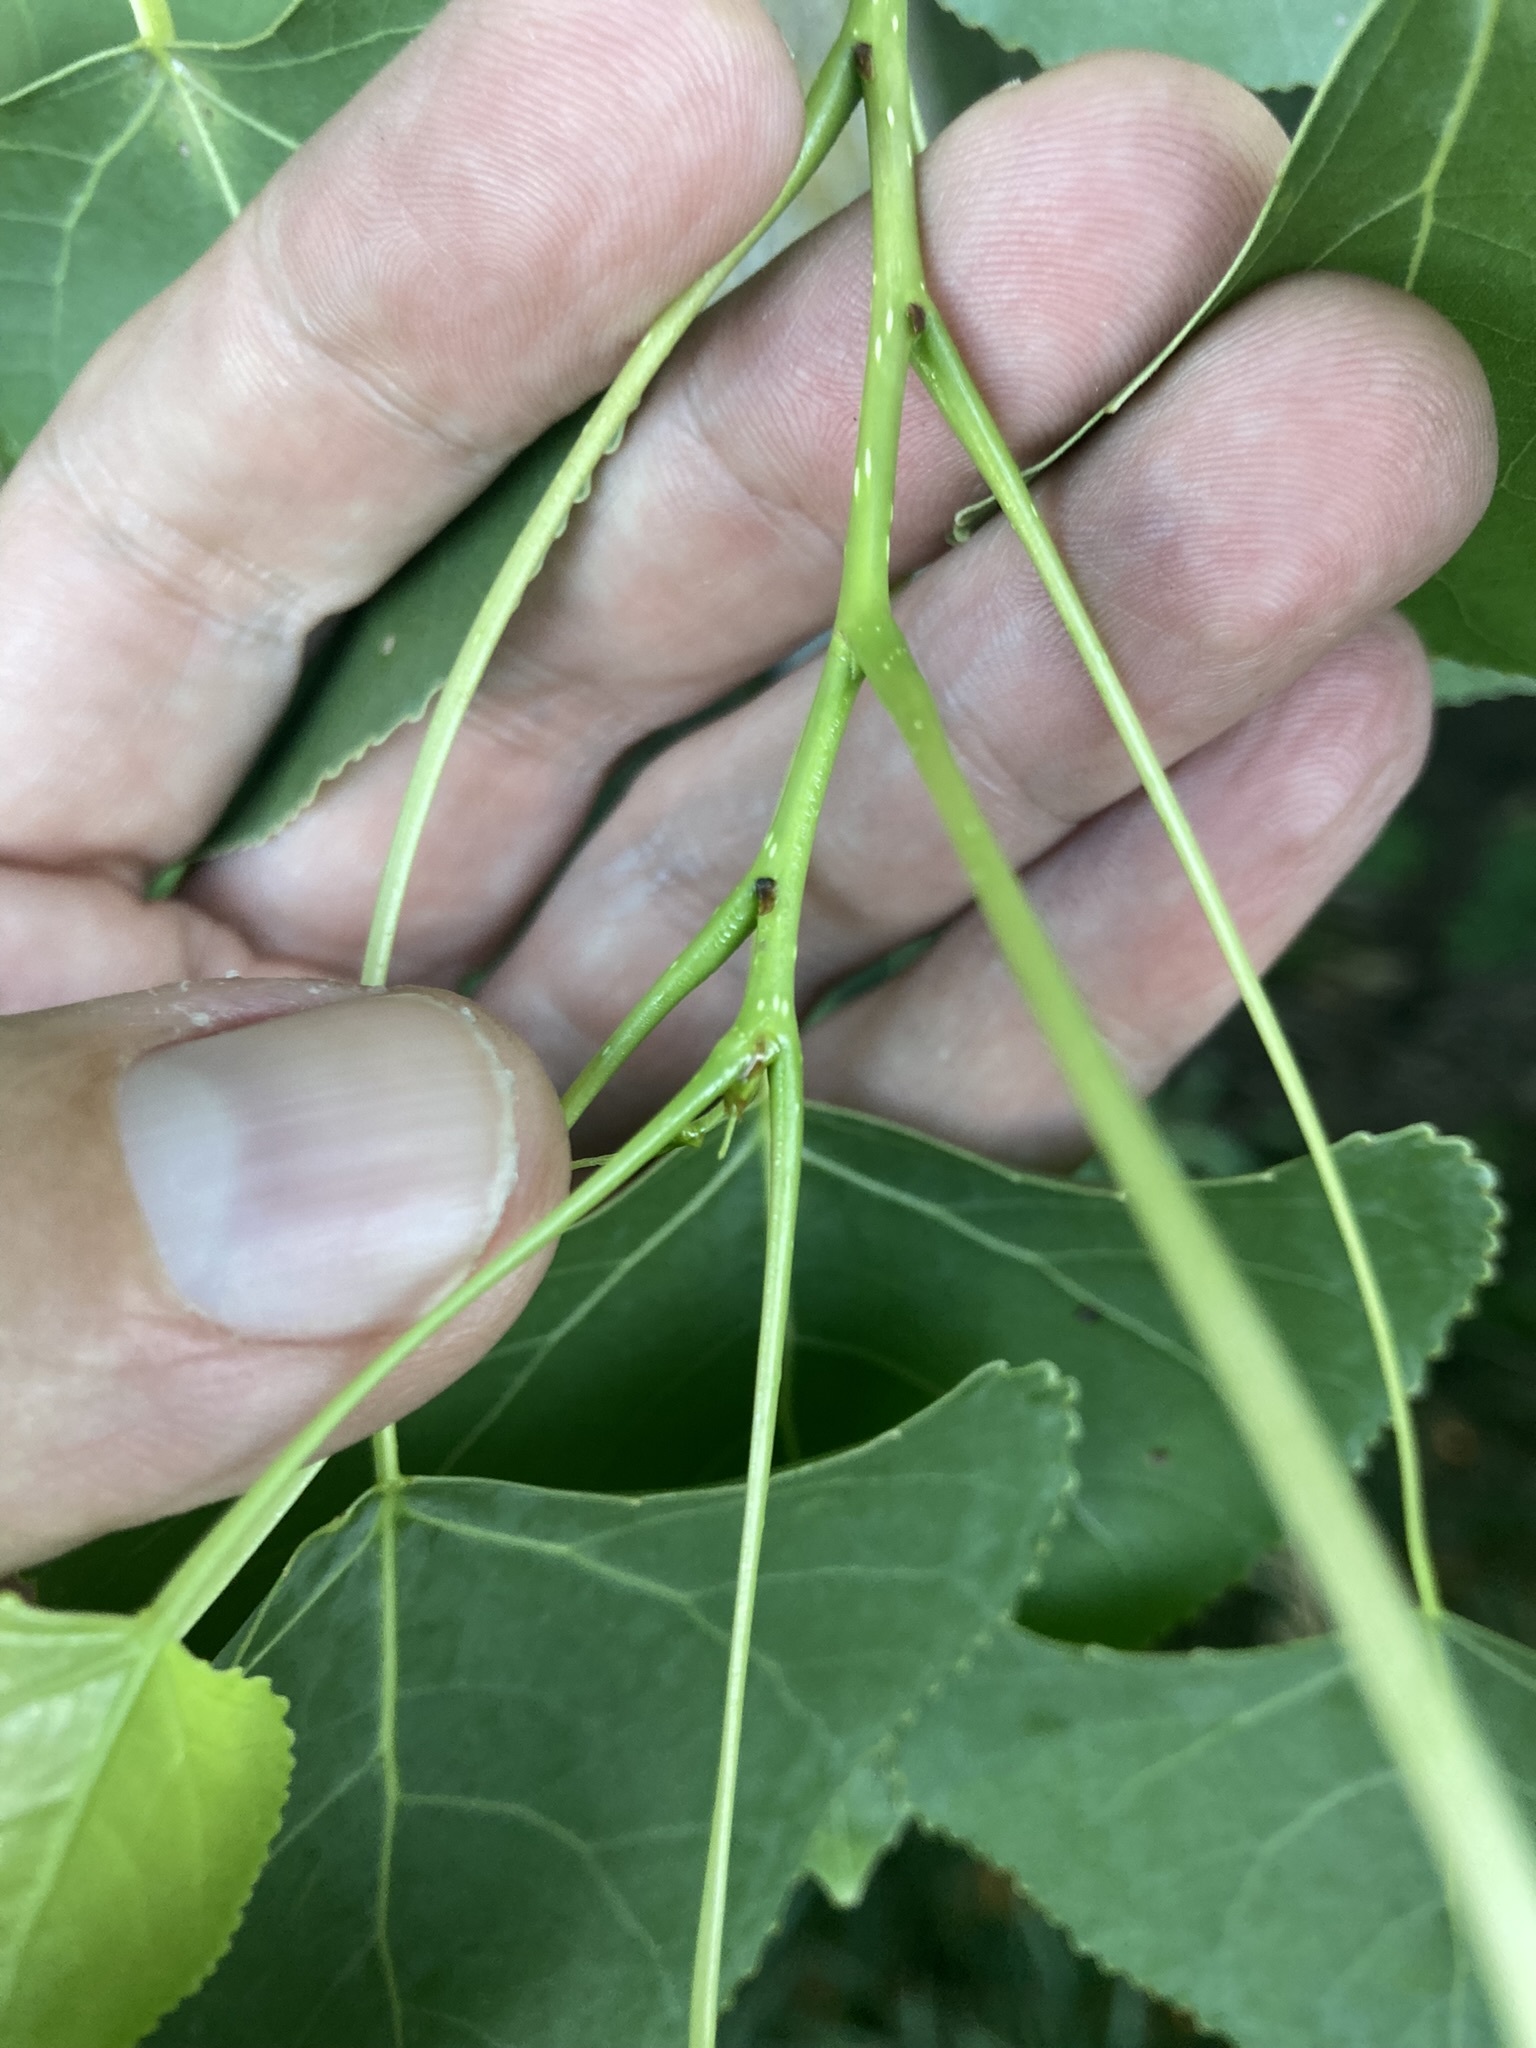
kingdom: Plantae
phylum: Tracheophyta
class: Magnoliopsida
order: Malpighiales
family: Salicaceae
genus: Populus
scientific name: Populus deltoides
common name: Eastern cottonwood
